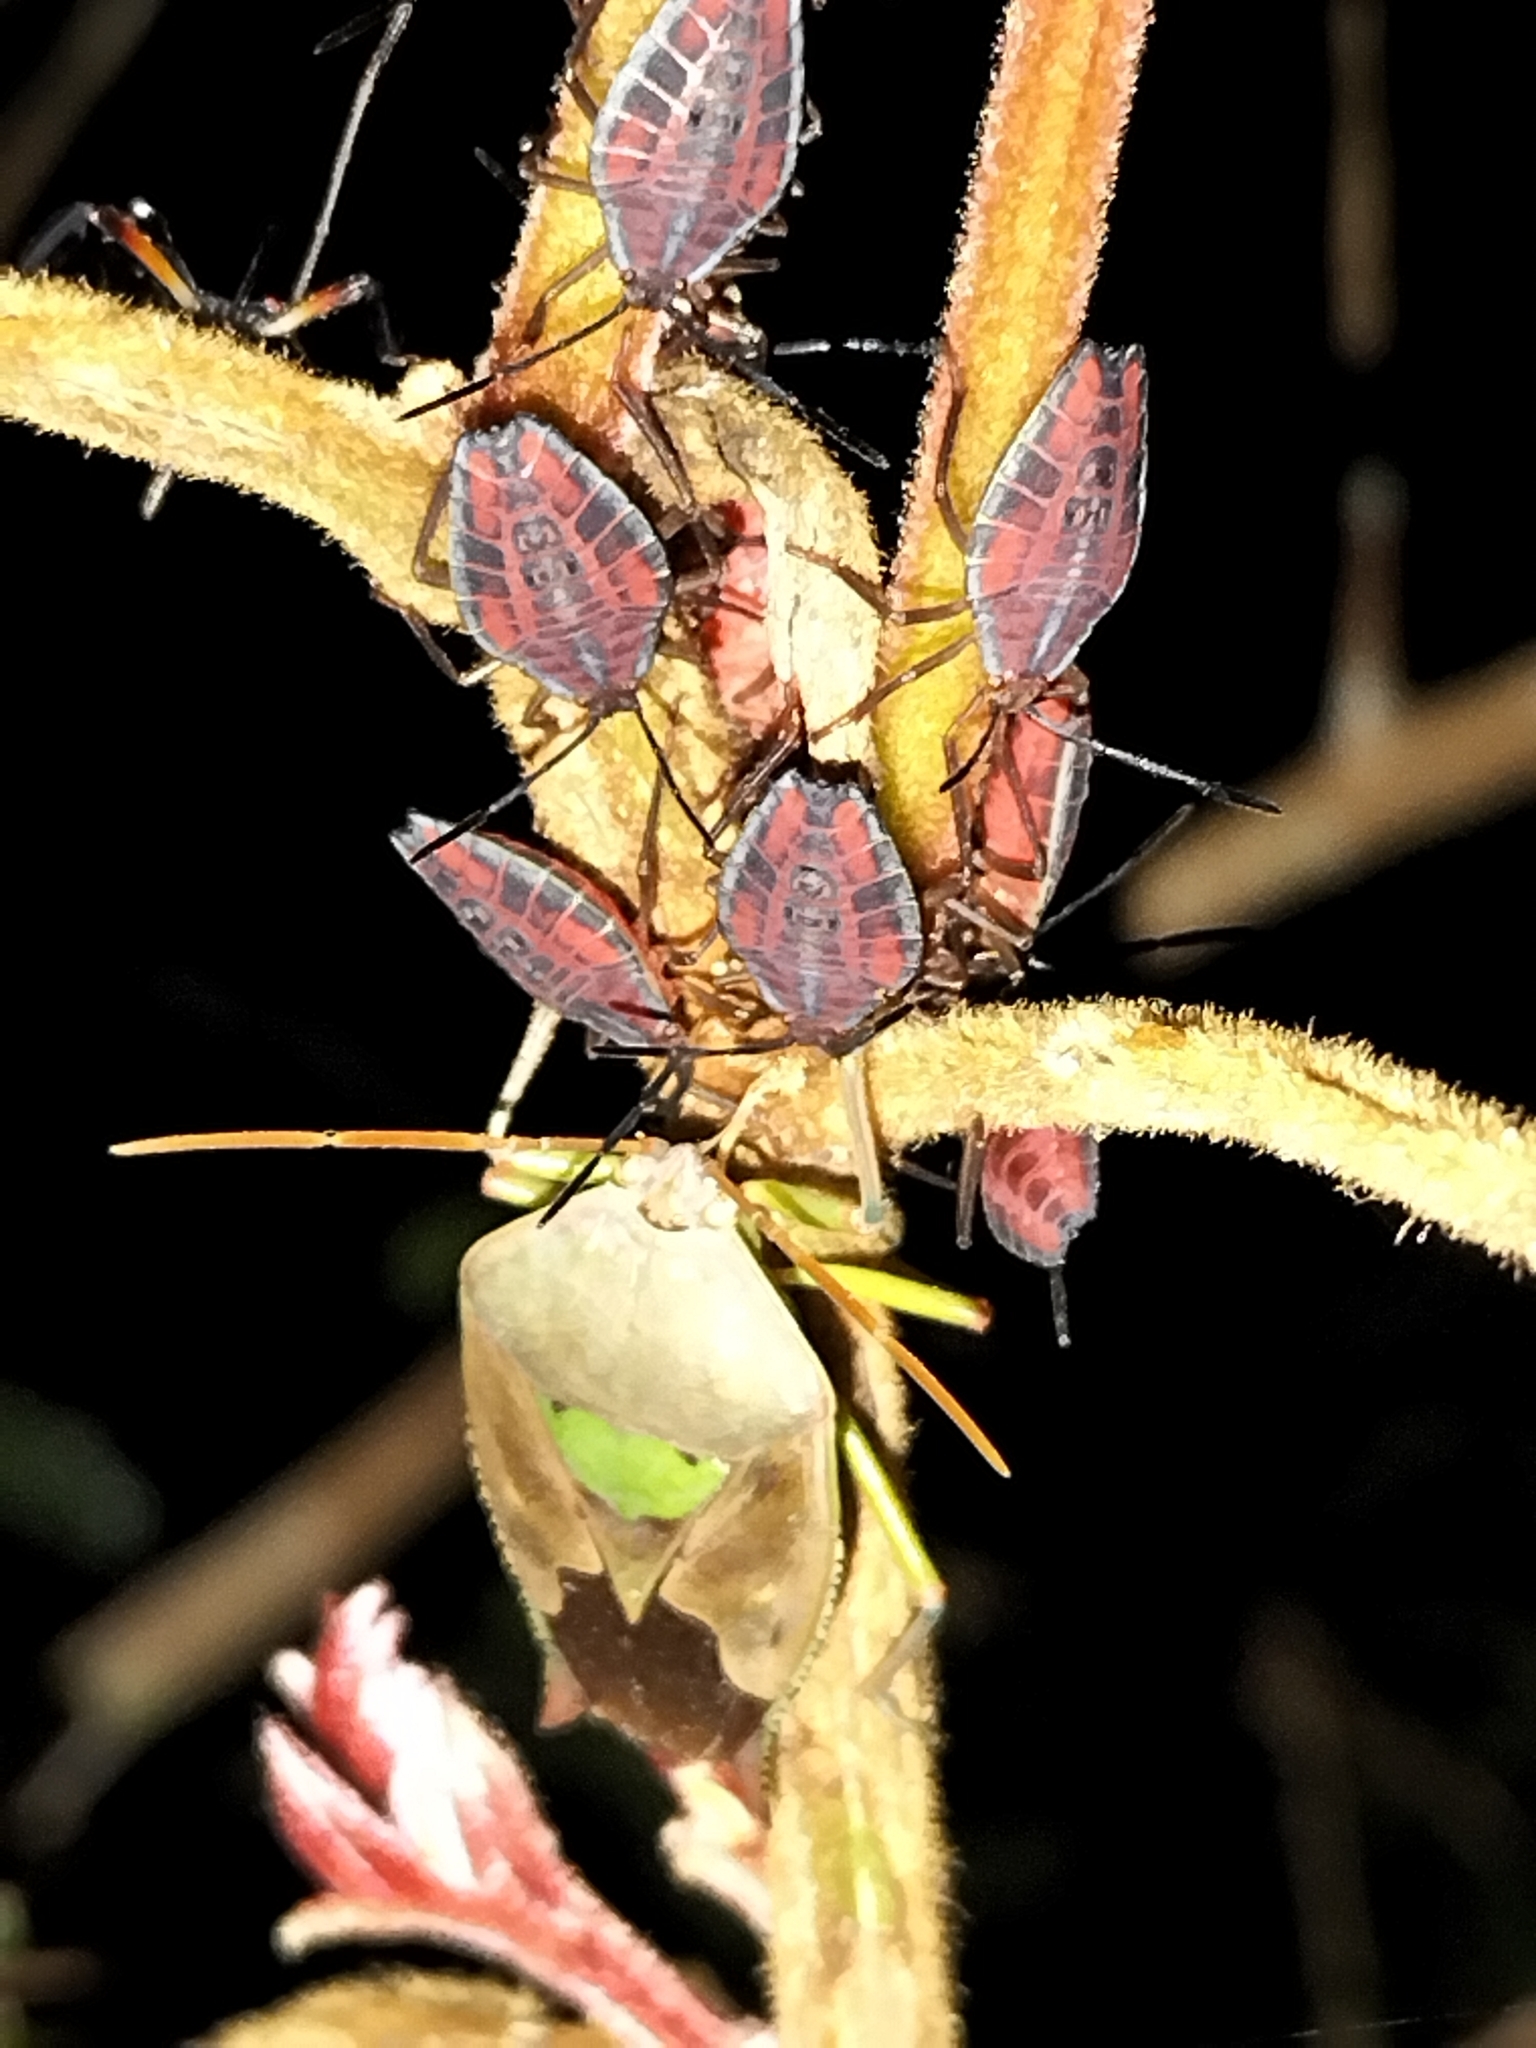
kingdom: Animalia
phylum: Arthropoda
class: Insecta
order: Hemiptera
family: Tessaratomidae
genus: Lyramorpha
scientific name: Lyramorpha parens
